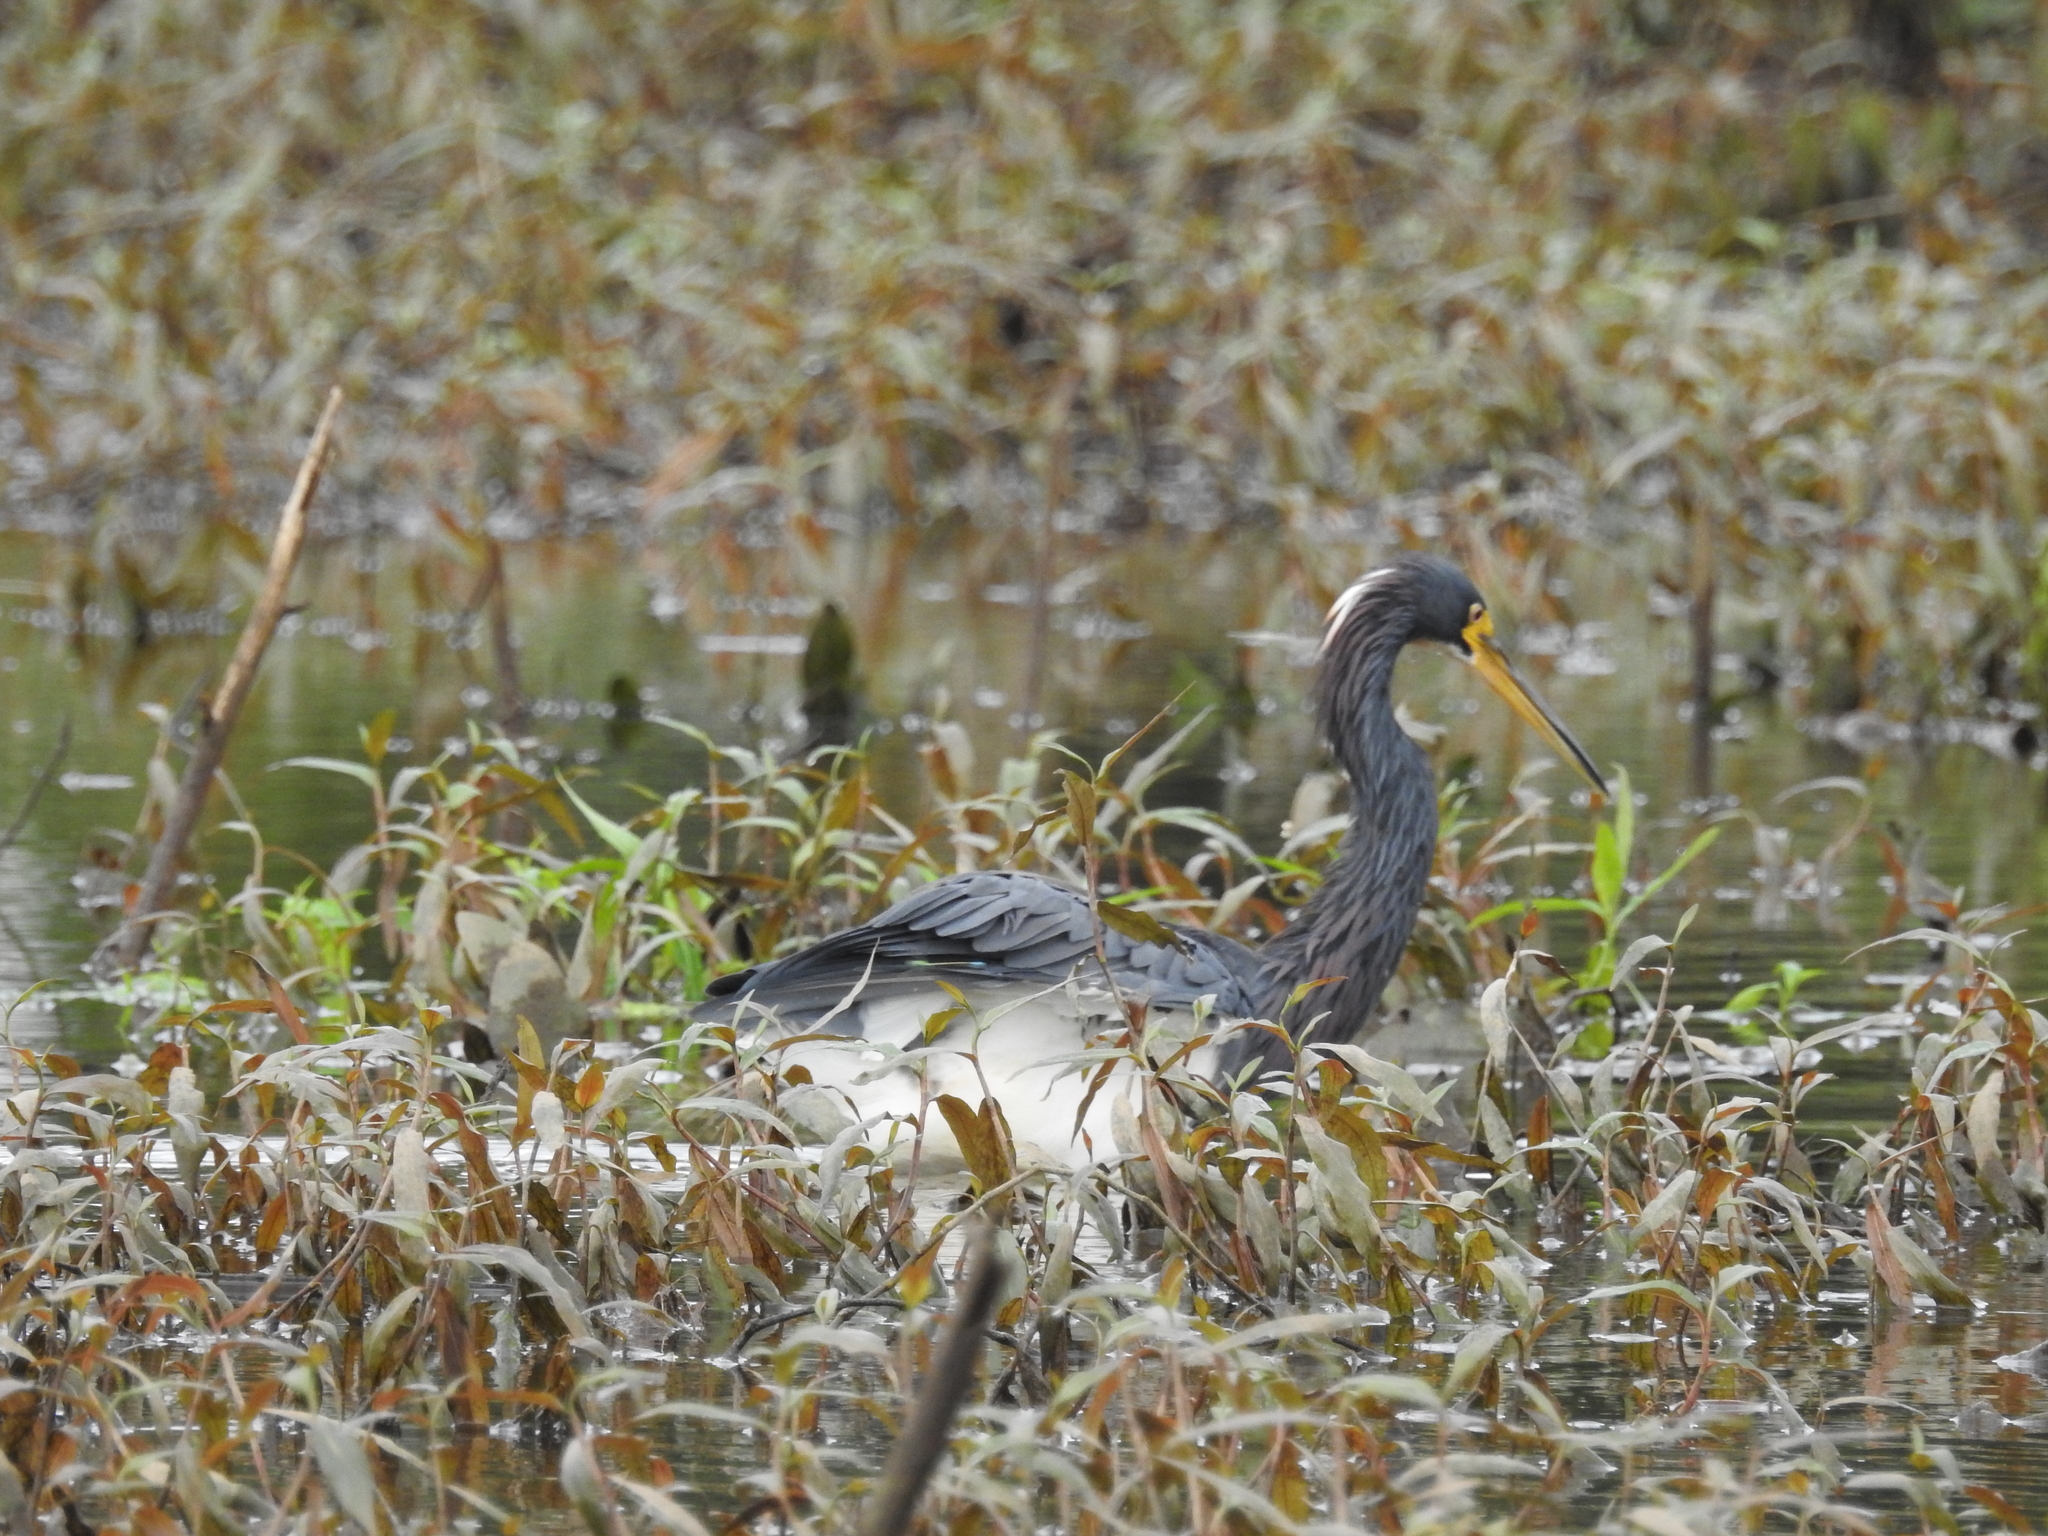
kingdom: Animalia
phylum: Chordata
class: Aves
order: Pelecaniformes
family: Ardeidae
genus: Egretta
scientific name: Egretta tricolor
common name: Tricolored heron
